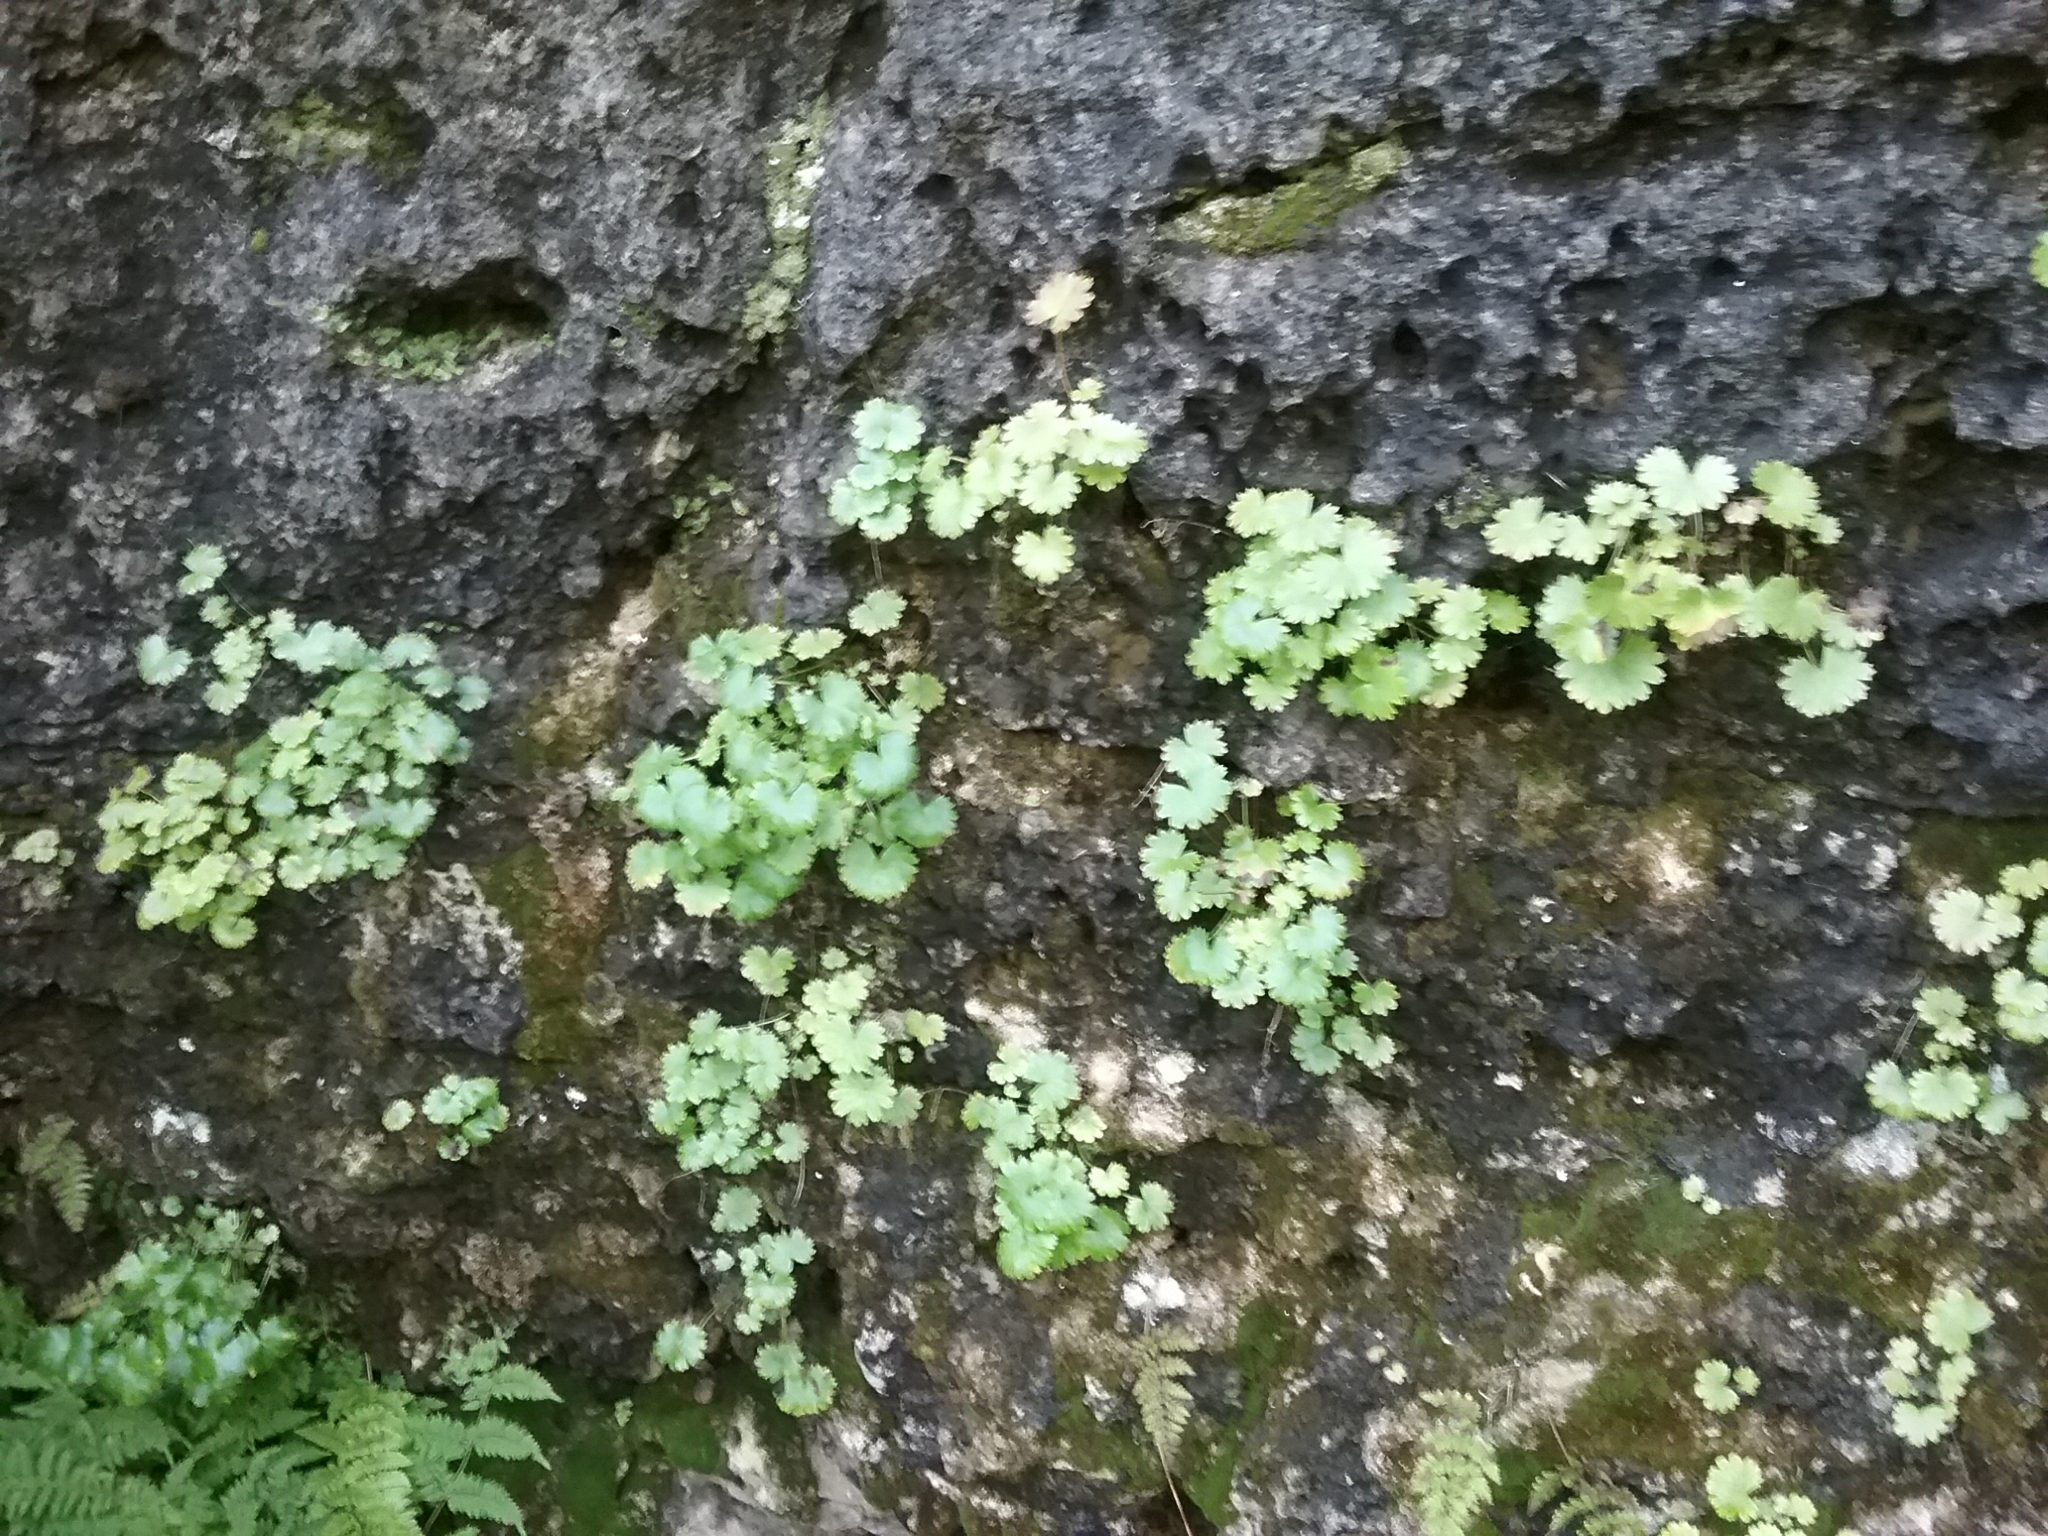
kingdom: Plantae
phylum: Tracheophyta
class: Magnoliopsida
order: Saxifragales
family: Saxifragaceae
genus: Sullivantia
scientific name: Sullivantia sullivantii
